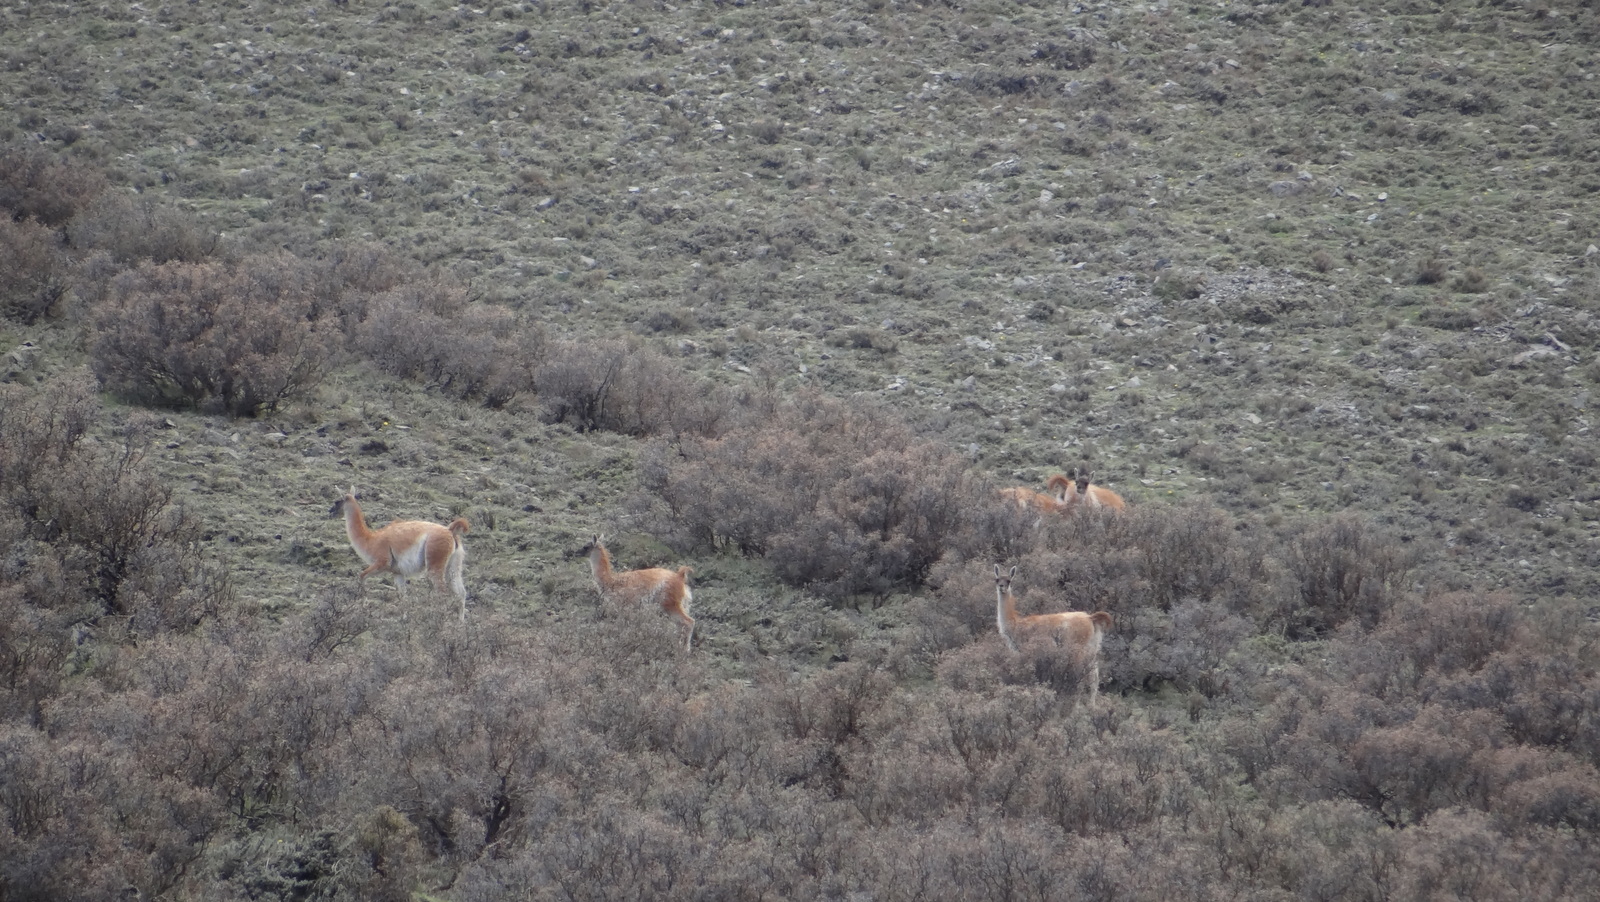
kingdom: Animalia
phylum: Chordata
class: Mammalia
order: Artiodactyla
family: Camelidae
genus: Lama
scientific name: Lama glama
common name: Llama
